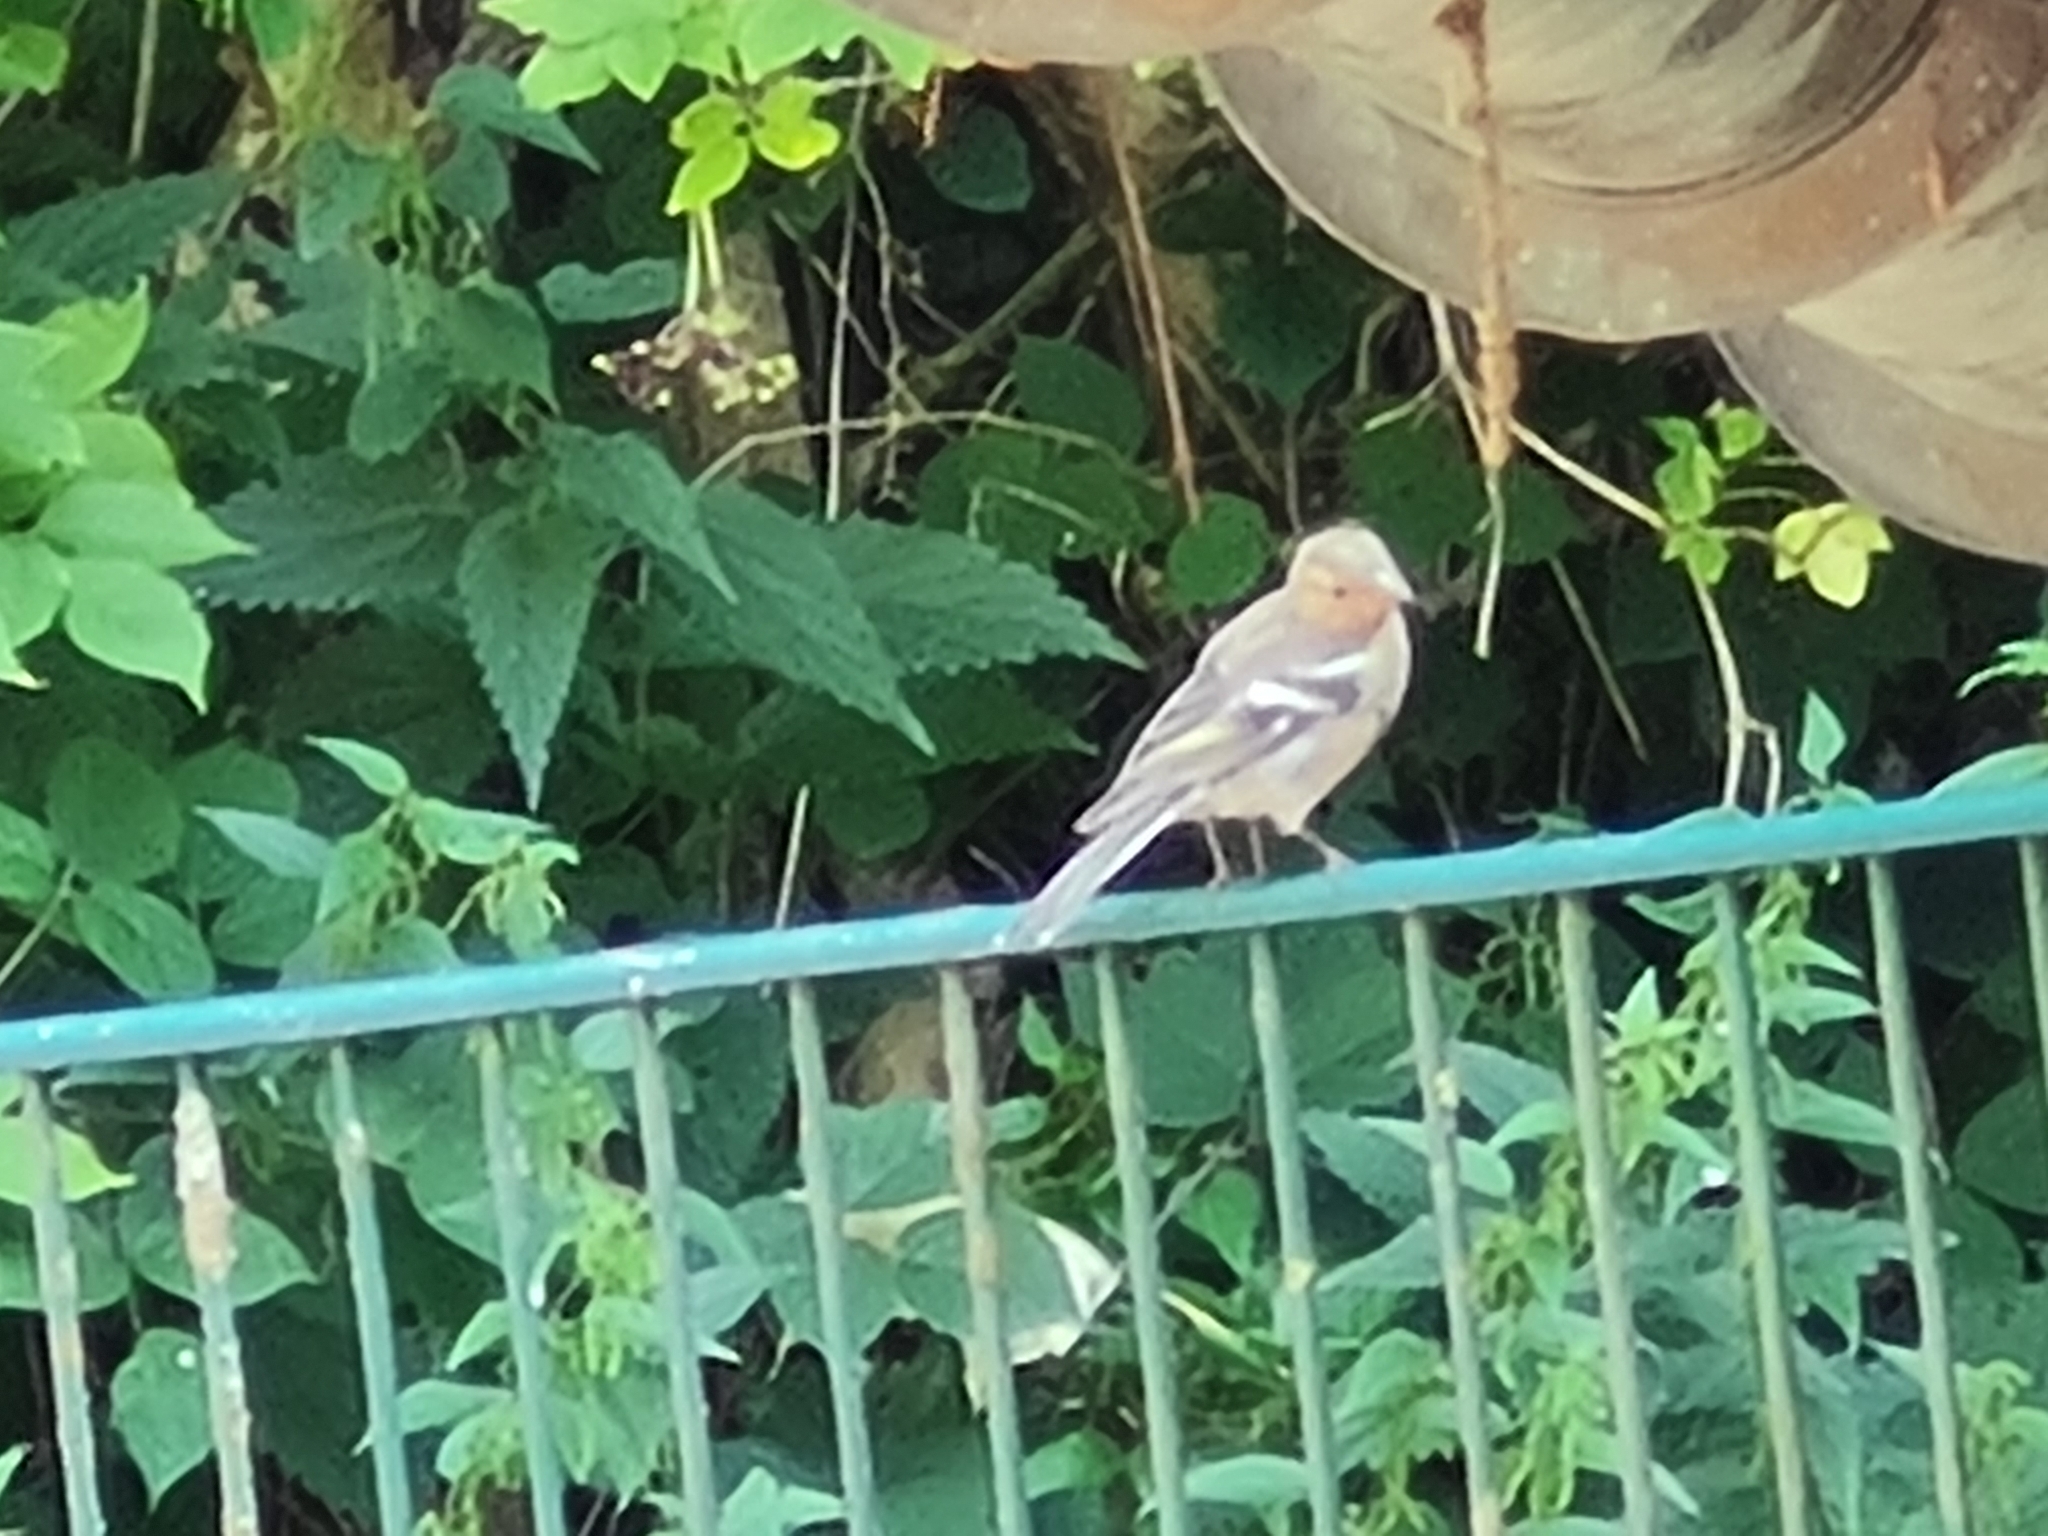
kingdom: Animalia
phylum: Chordata
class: Aves
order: Passeriformes
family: Fringillidae
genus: Fringilla
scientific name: Fringilla coelebs
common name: Common chaffinch
